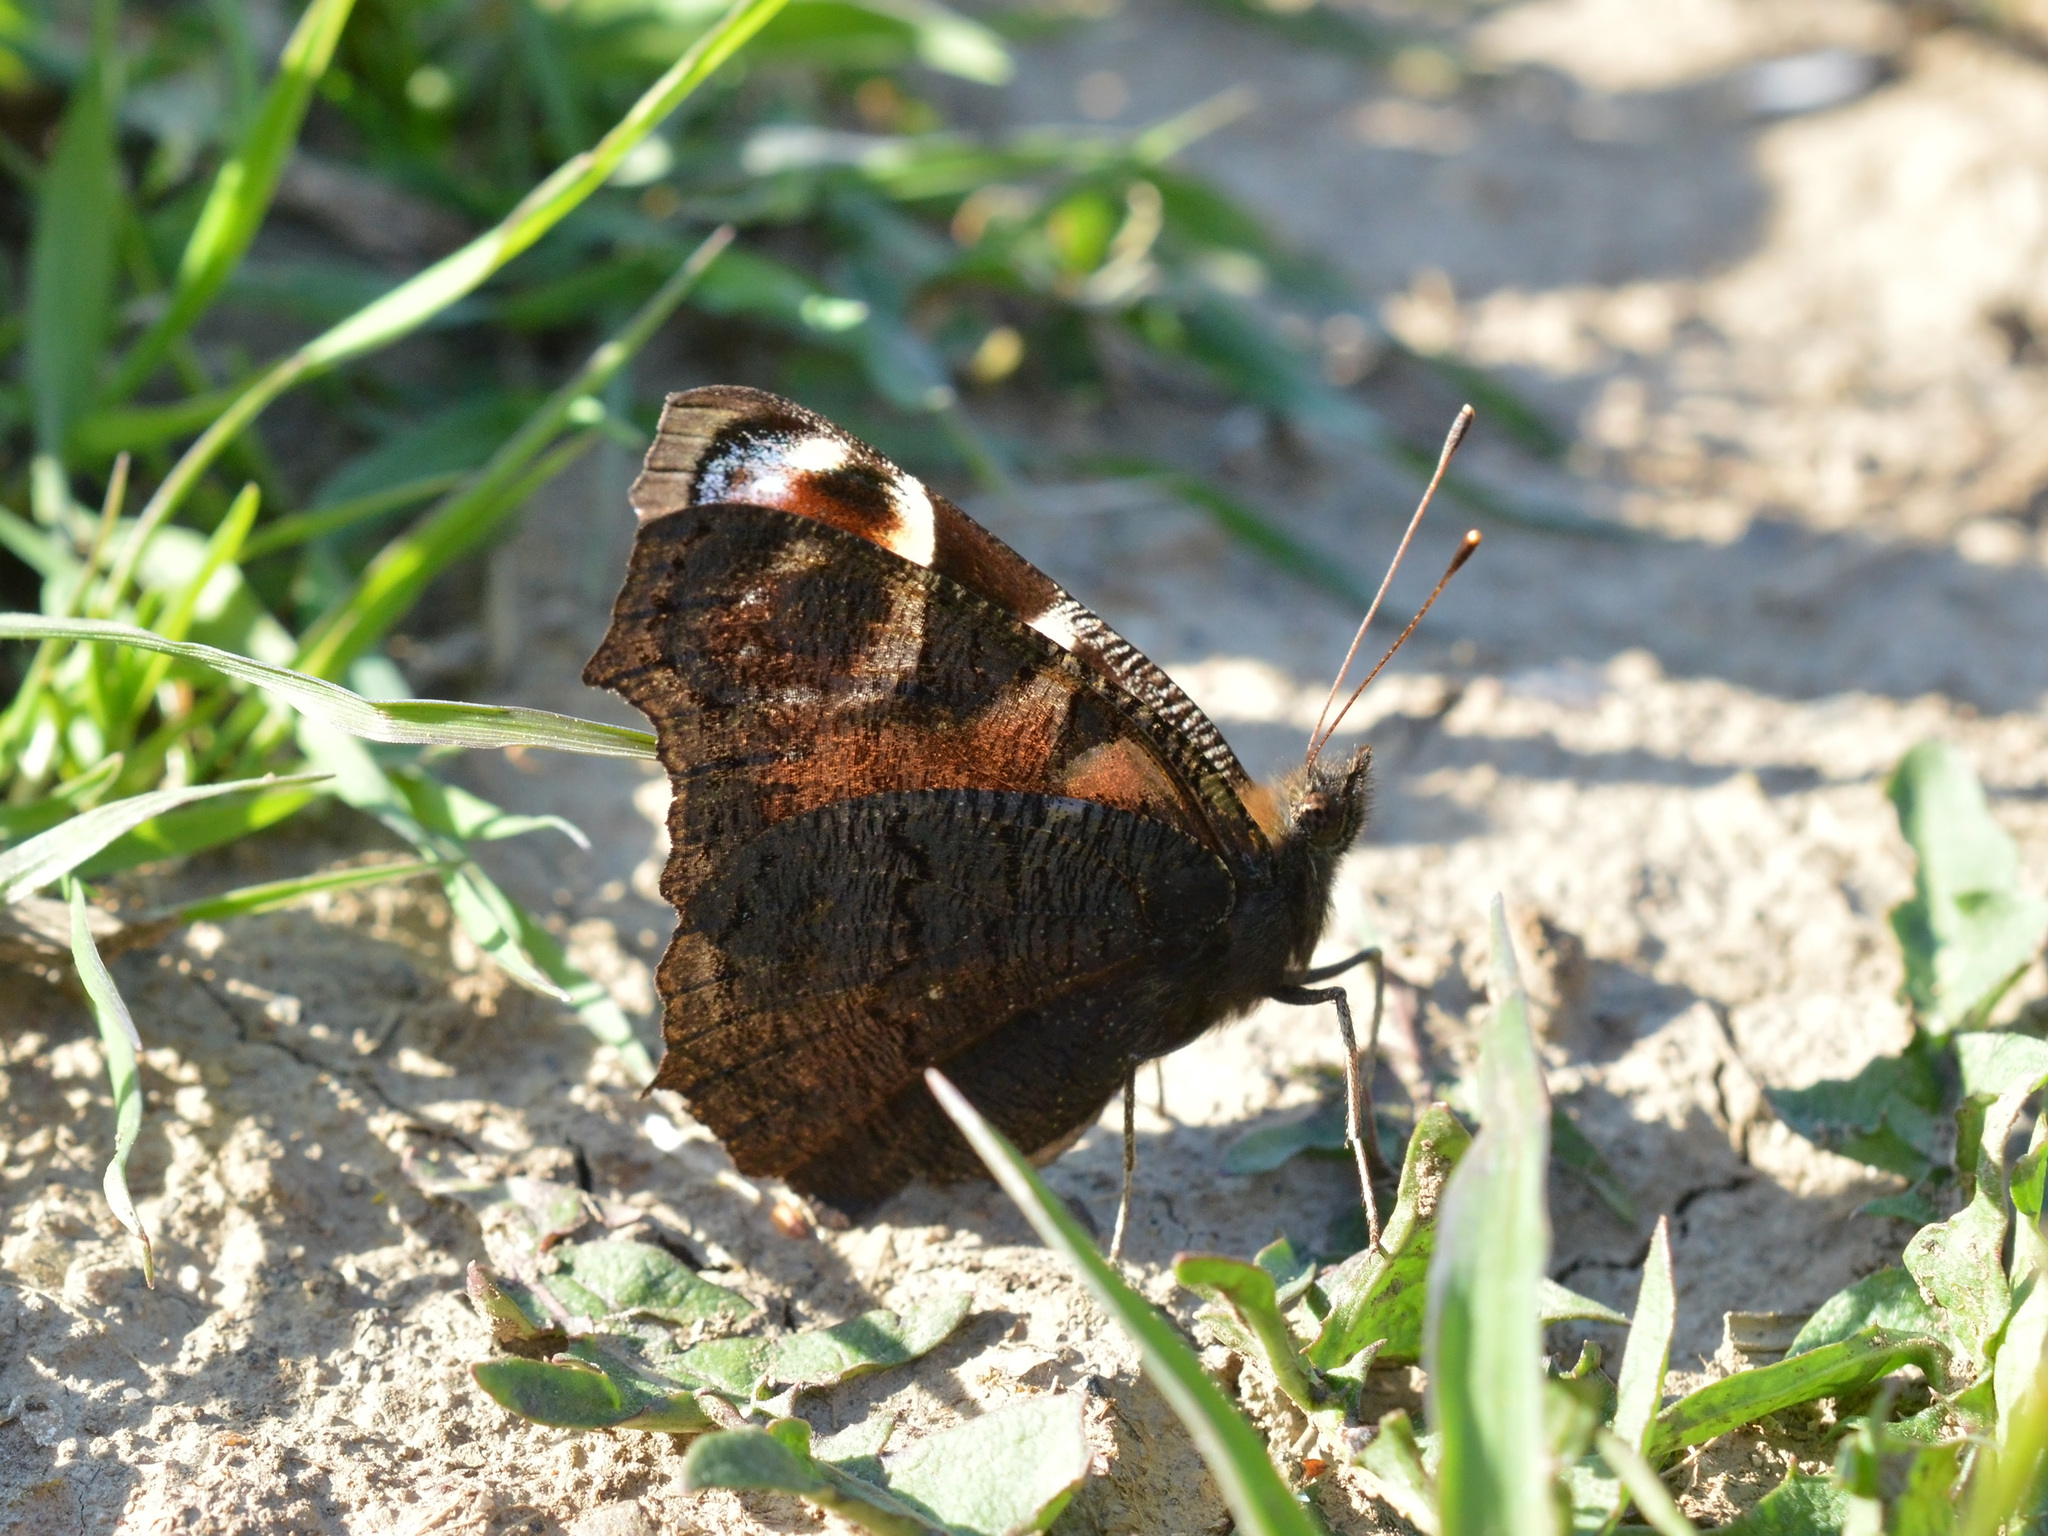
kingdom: Animalia
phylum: Arthropoda
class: Insecta
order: Lepidoptera
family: Nymphalidae
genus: Aglais
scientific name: Aglais io
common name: Peacock
